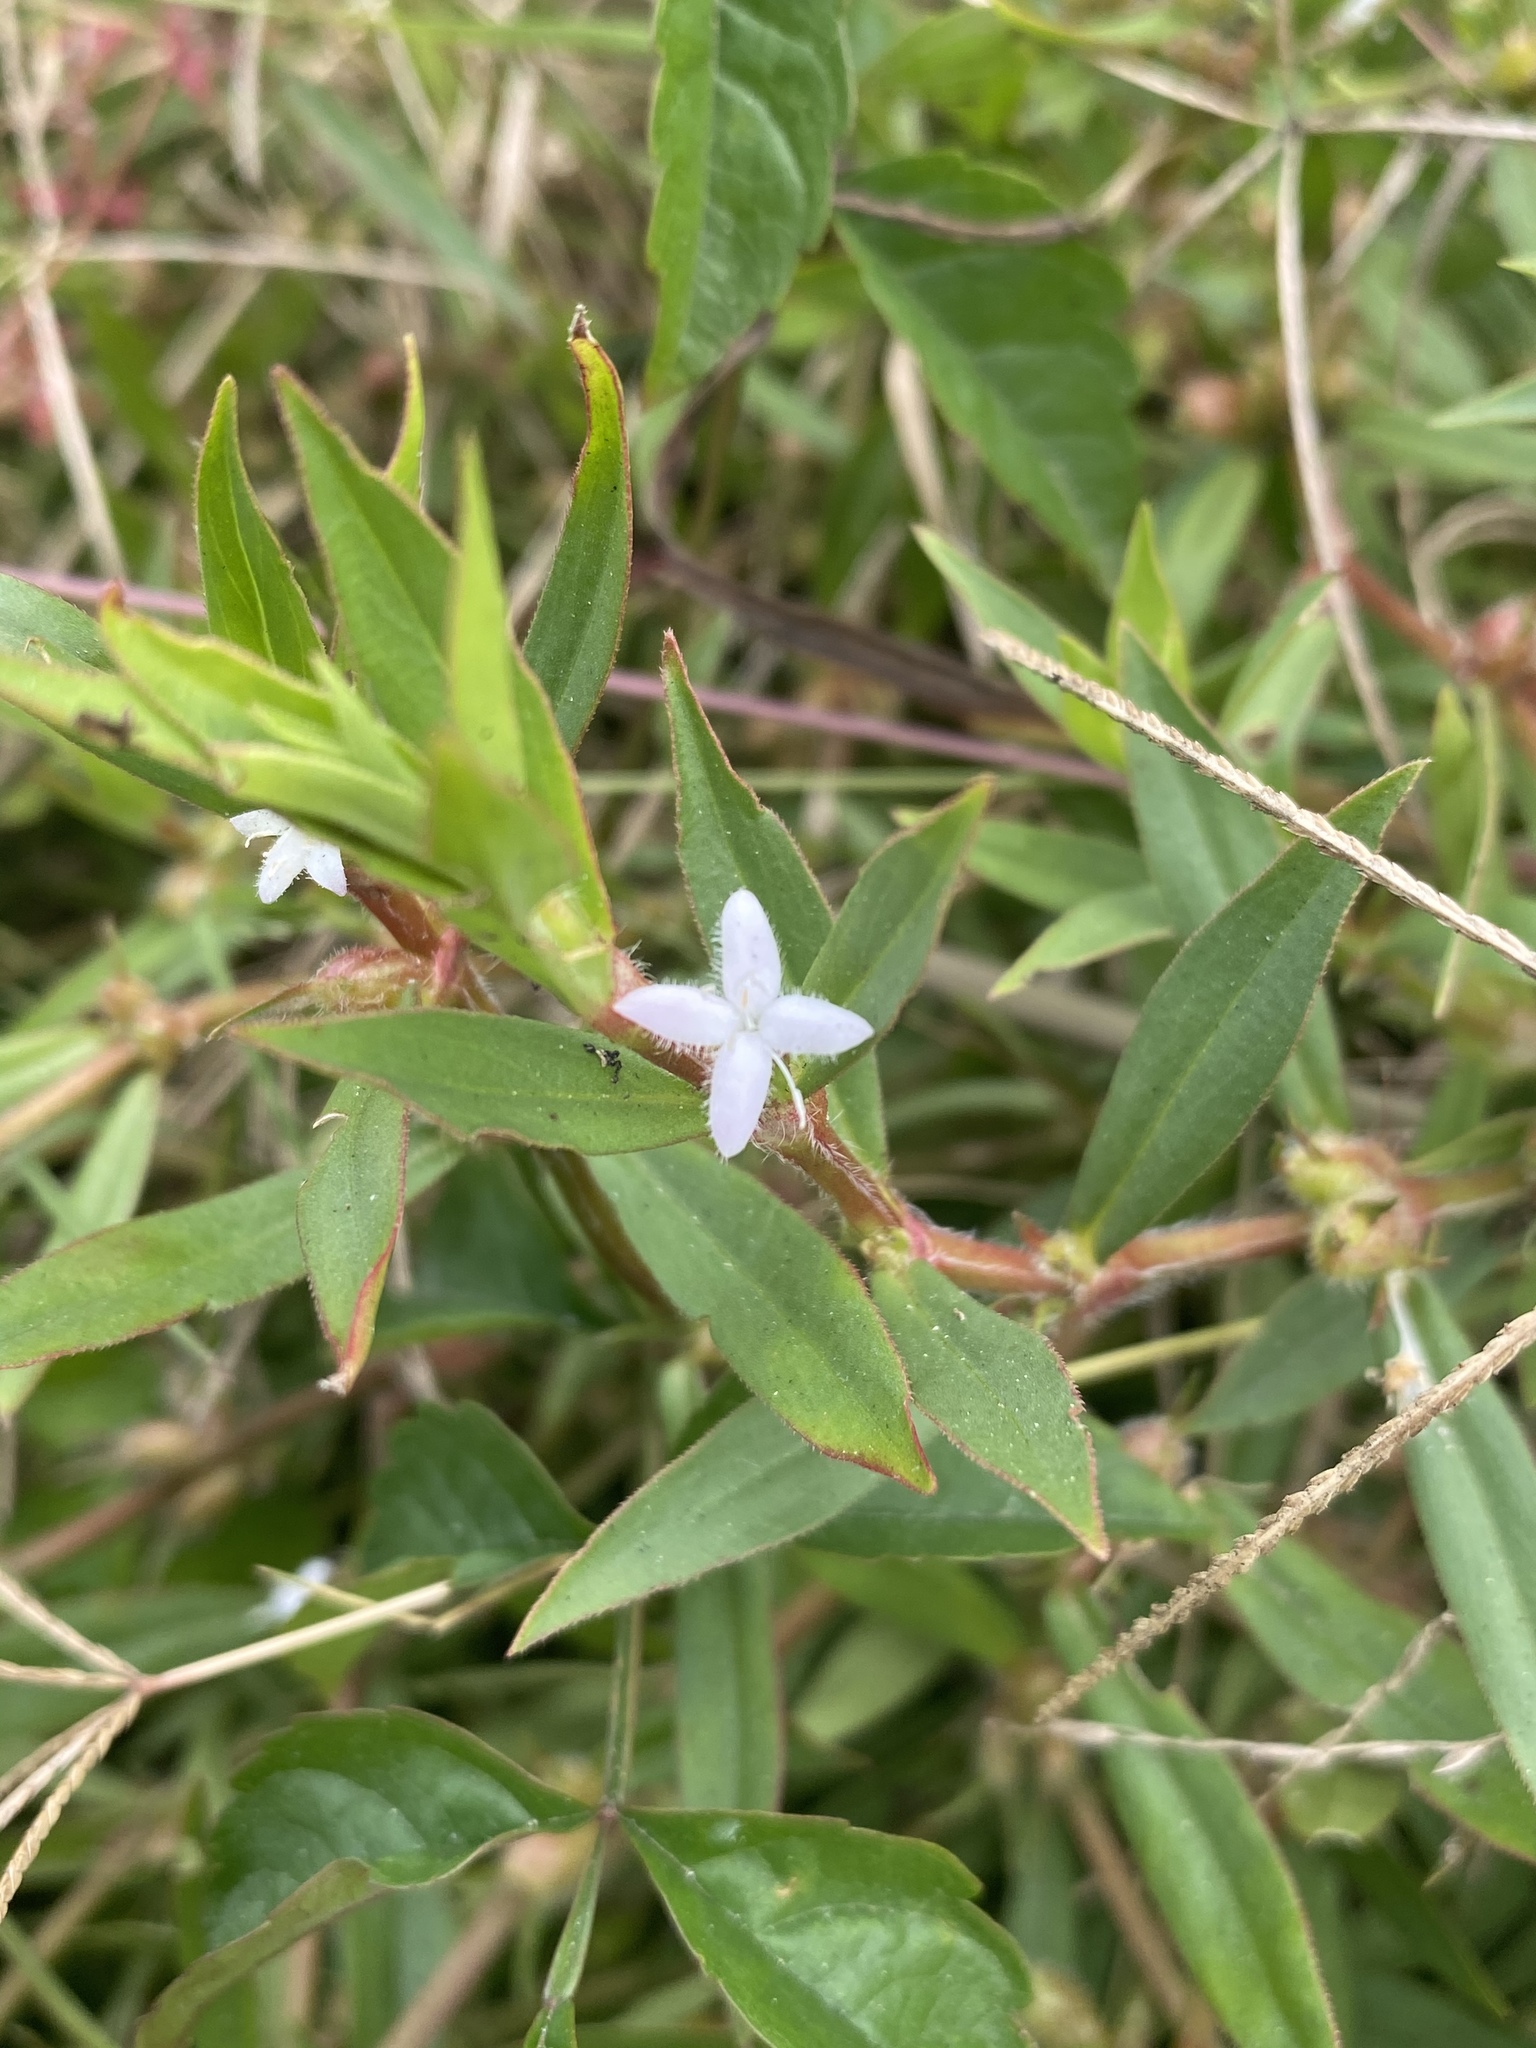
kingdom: Plantae
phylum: Tracheophyta
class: Magnoliopsida
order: Gentianales
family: Rubiaceae
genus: Diodia
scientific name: Diodia virginiana
